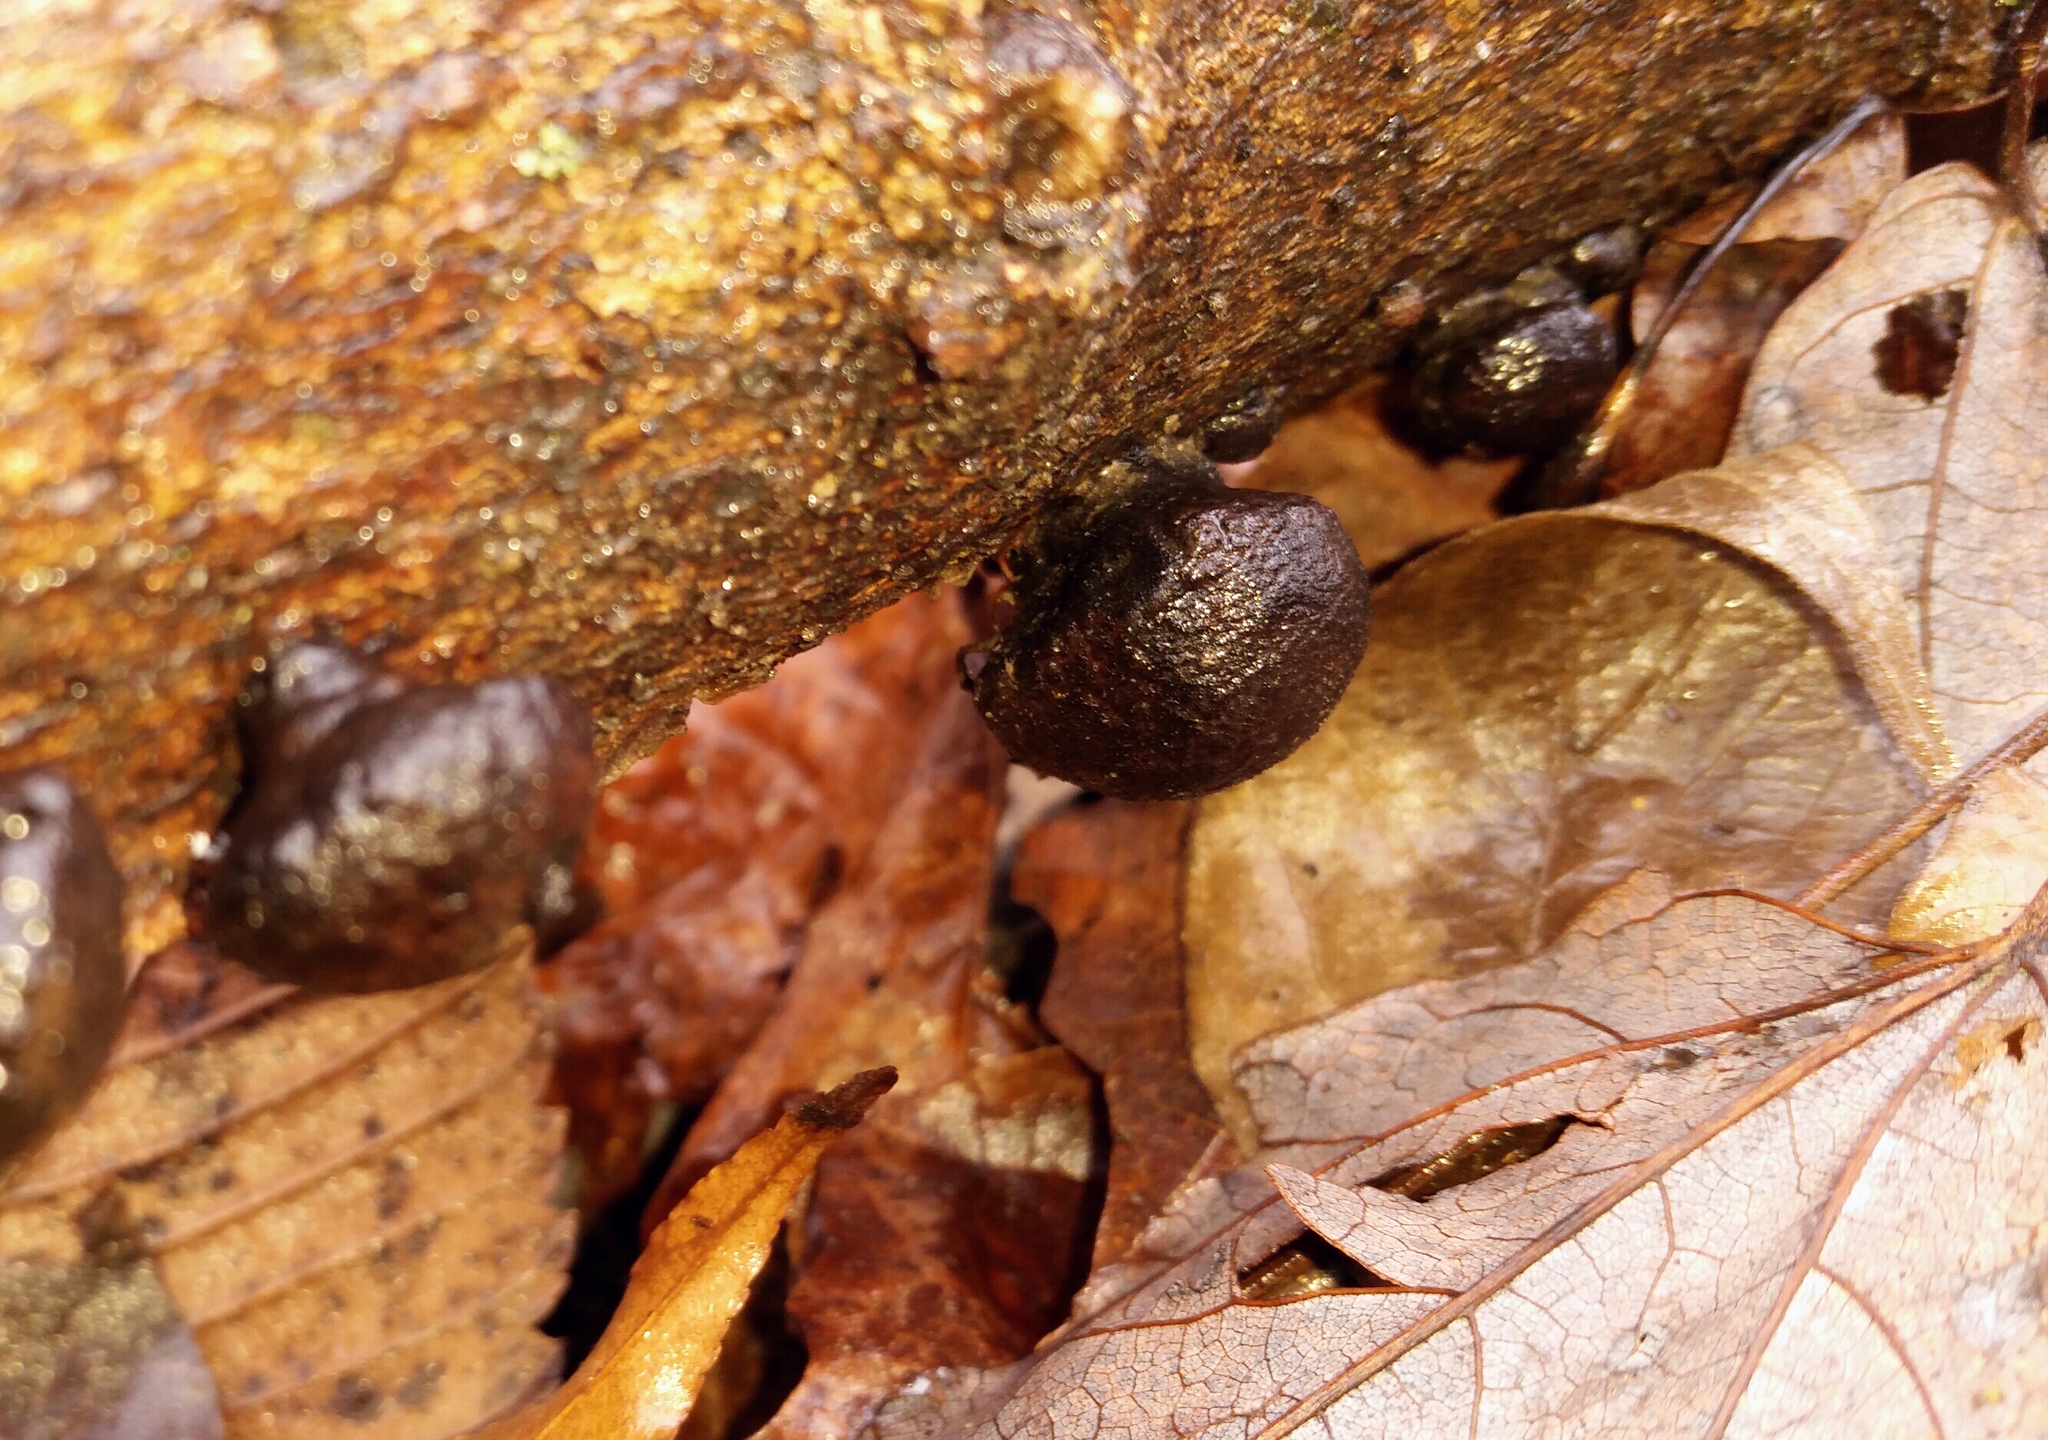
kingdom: Fungi
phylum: Ascomycota
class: Sordariomycetes
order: Xylariales
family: Hypoxylaceae
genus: Daldinia
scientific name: Daldinia childiae
